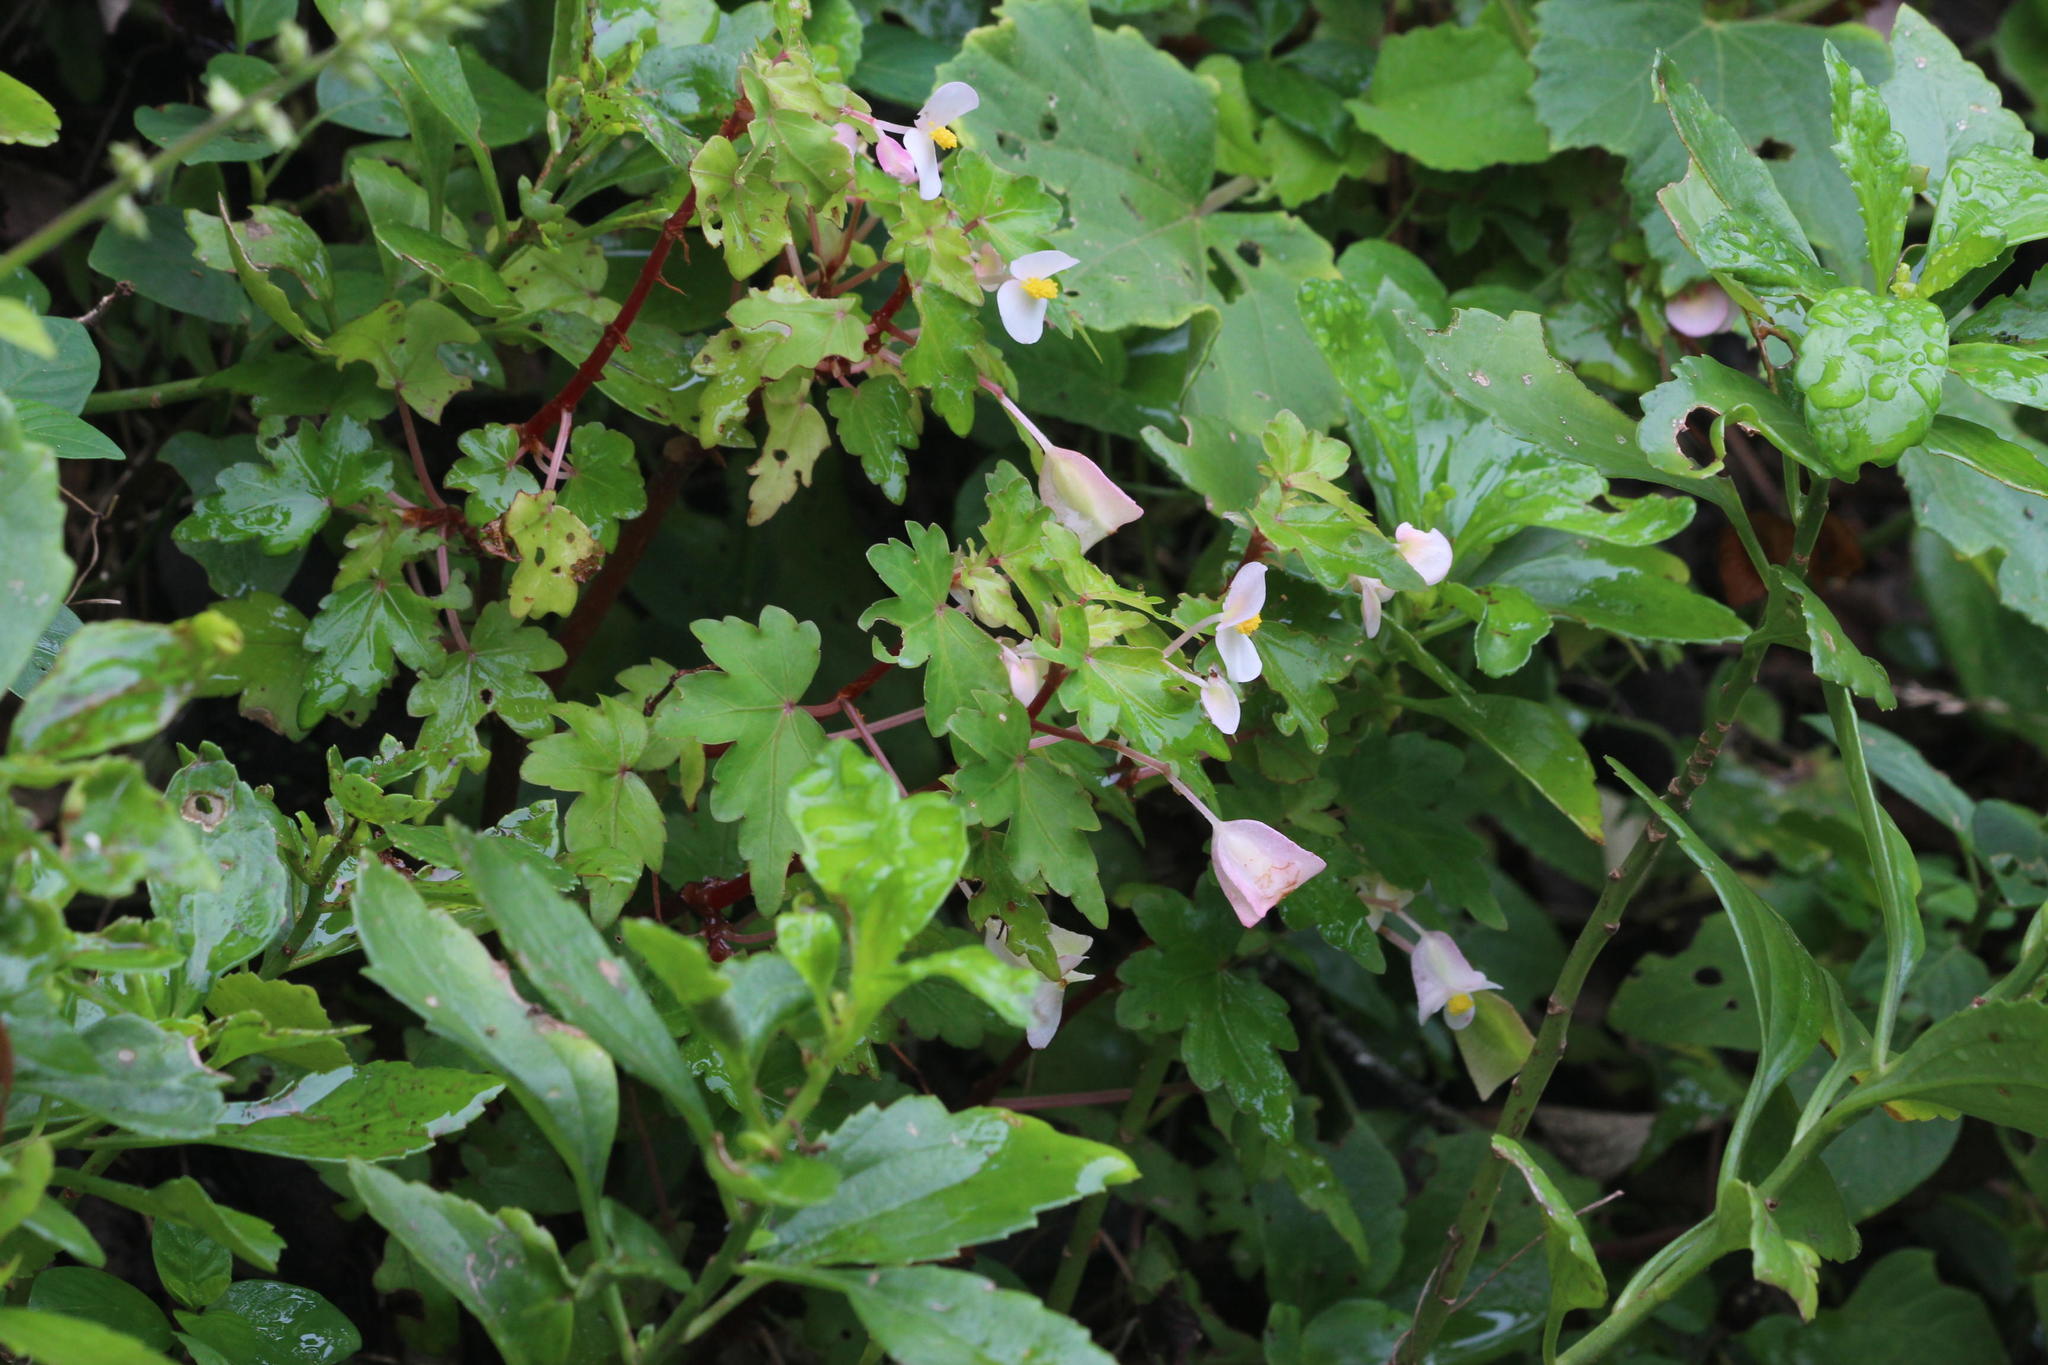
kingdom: Plantae
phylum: Tracheophyta
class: Magnoliopsida
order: Cucurbitales
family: Begoniaceae
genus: Begonia
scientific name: Begonia dregei
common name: Grape-leaf begonia
